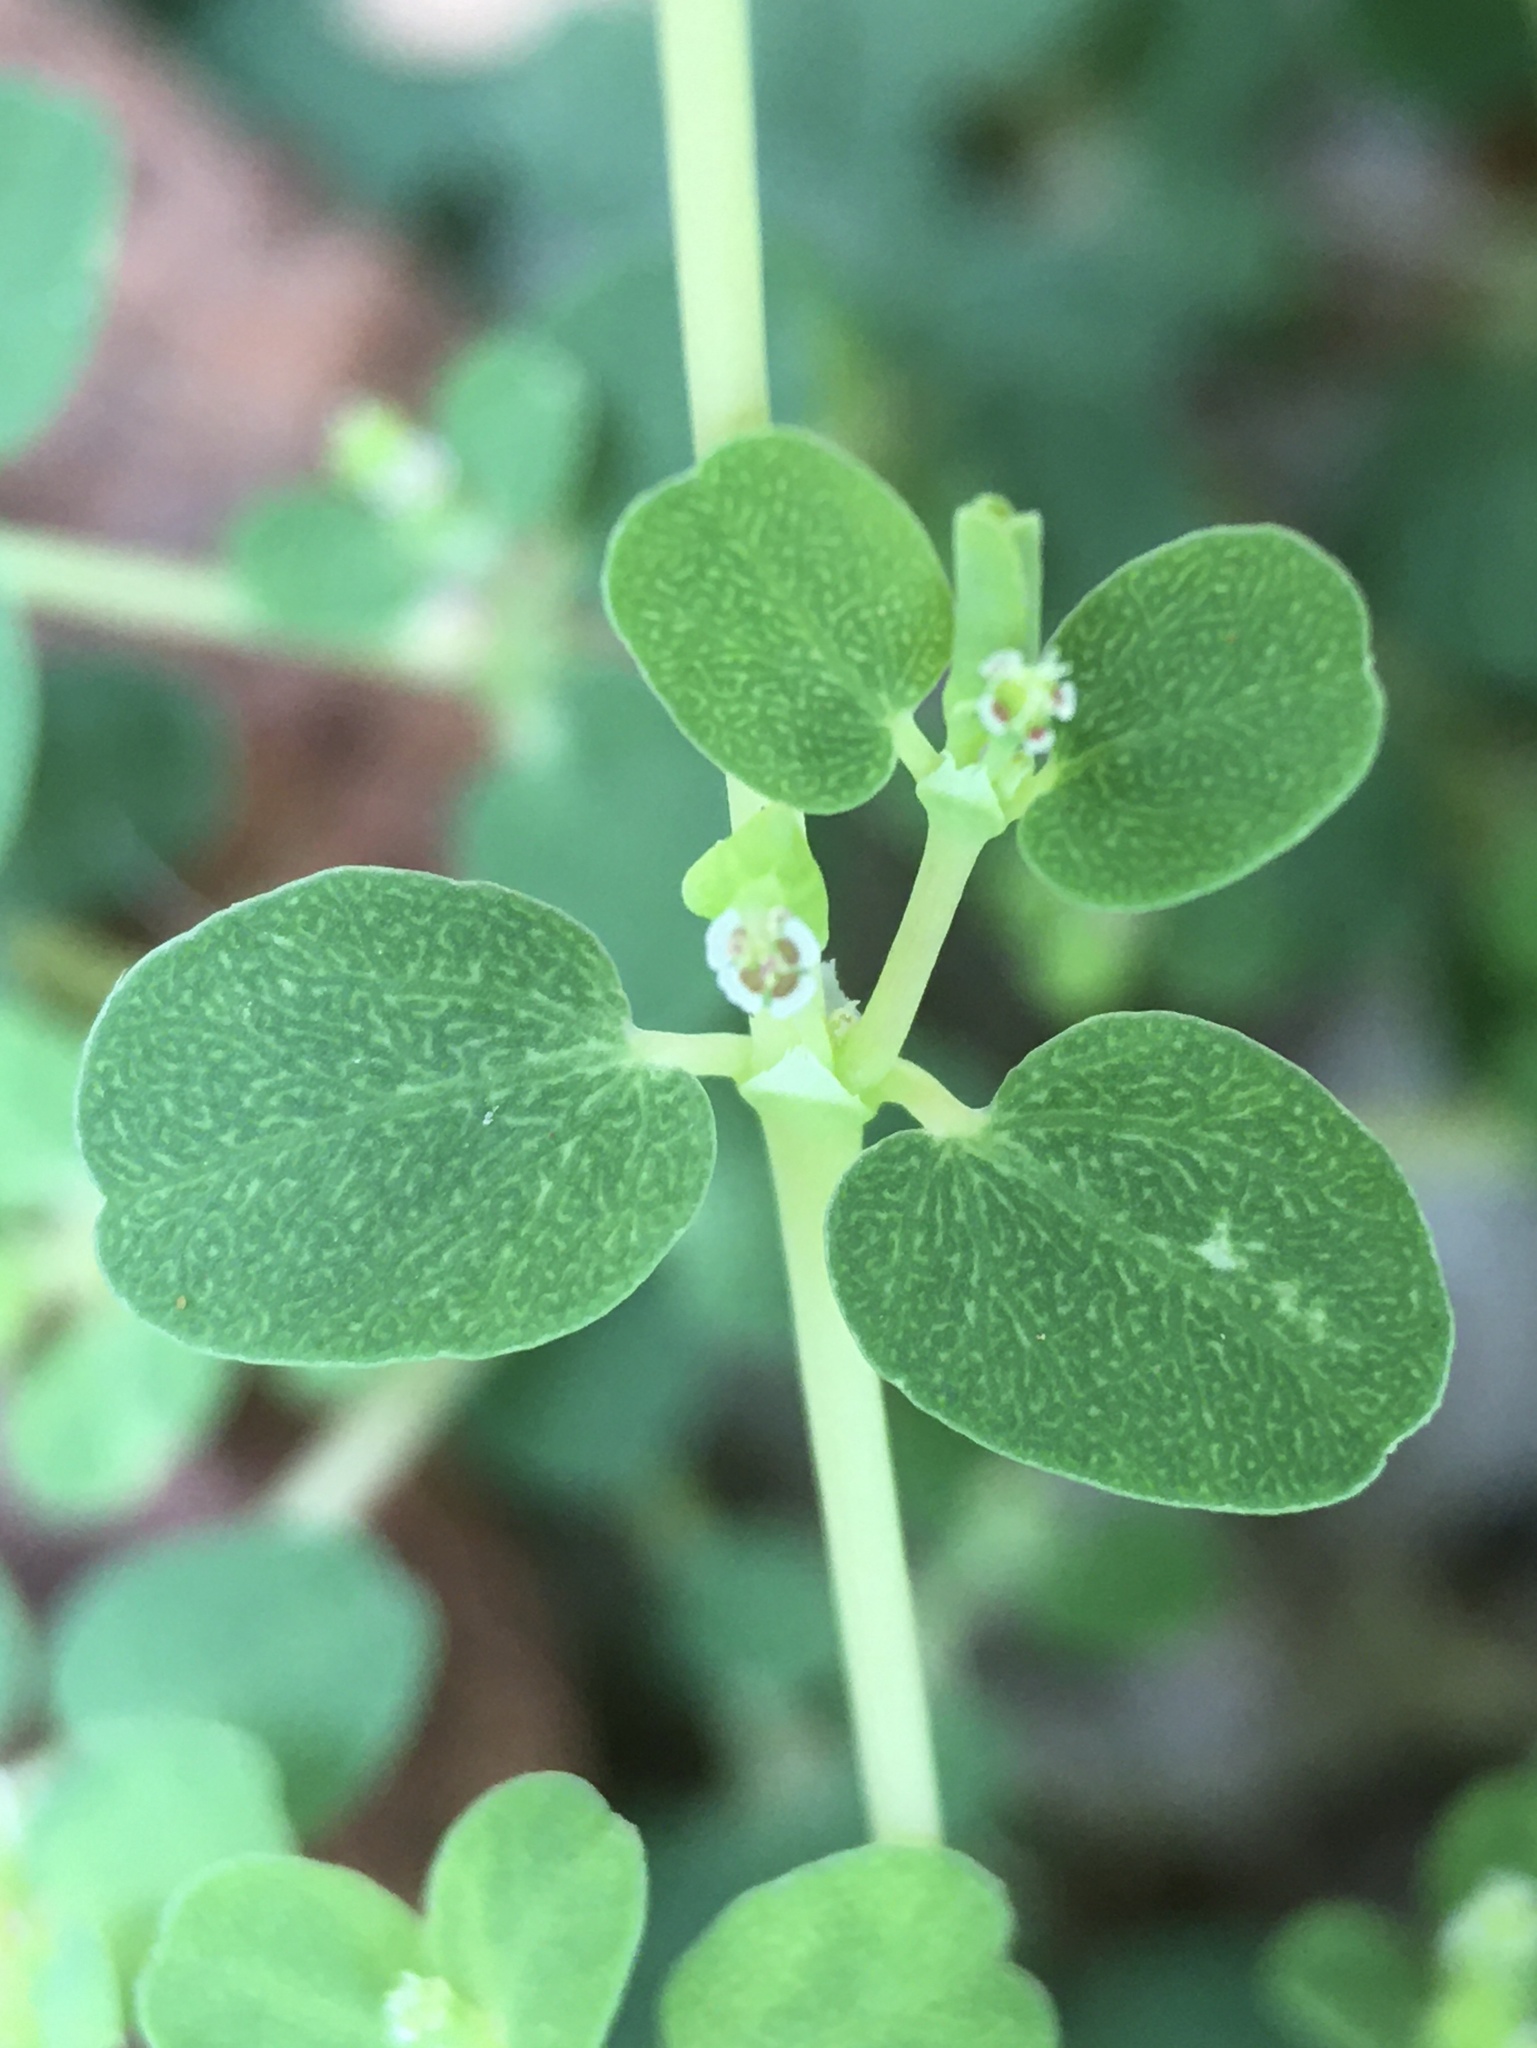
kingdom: Plantae
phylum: Tracheophyta
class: Magnoliopsida
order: Malpighiales
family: Euphorbiaceae
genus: Euphorbia
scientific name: Euphorbia serpens
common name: Matted sandmat
